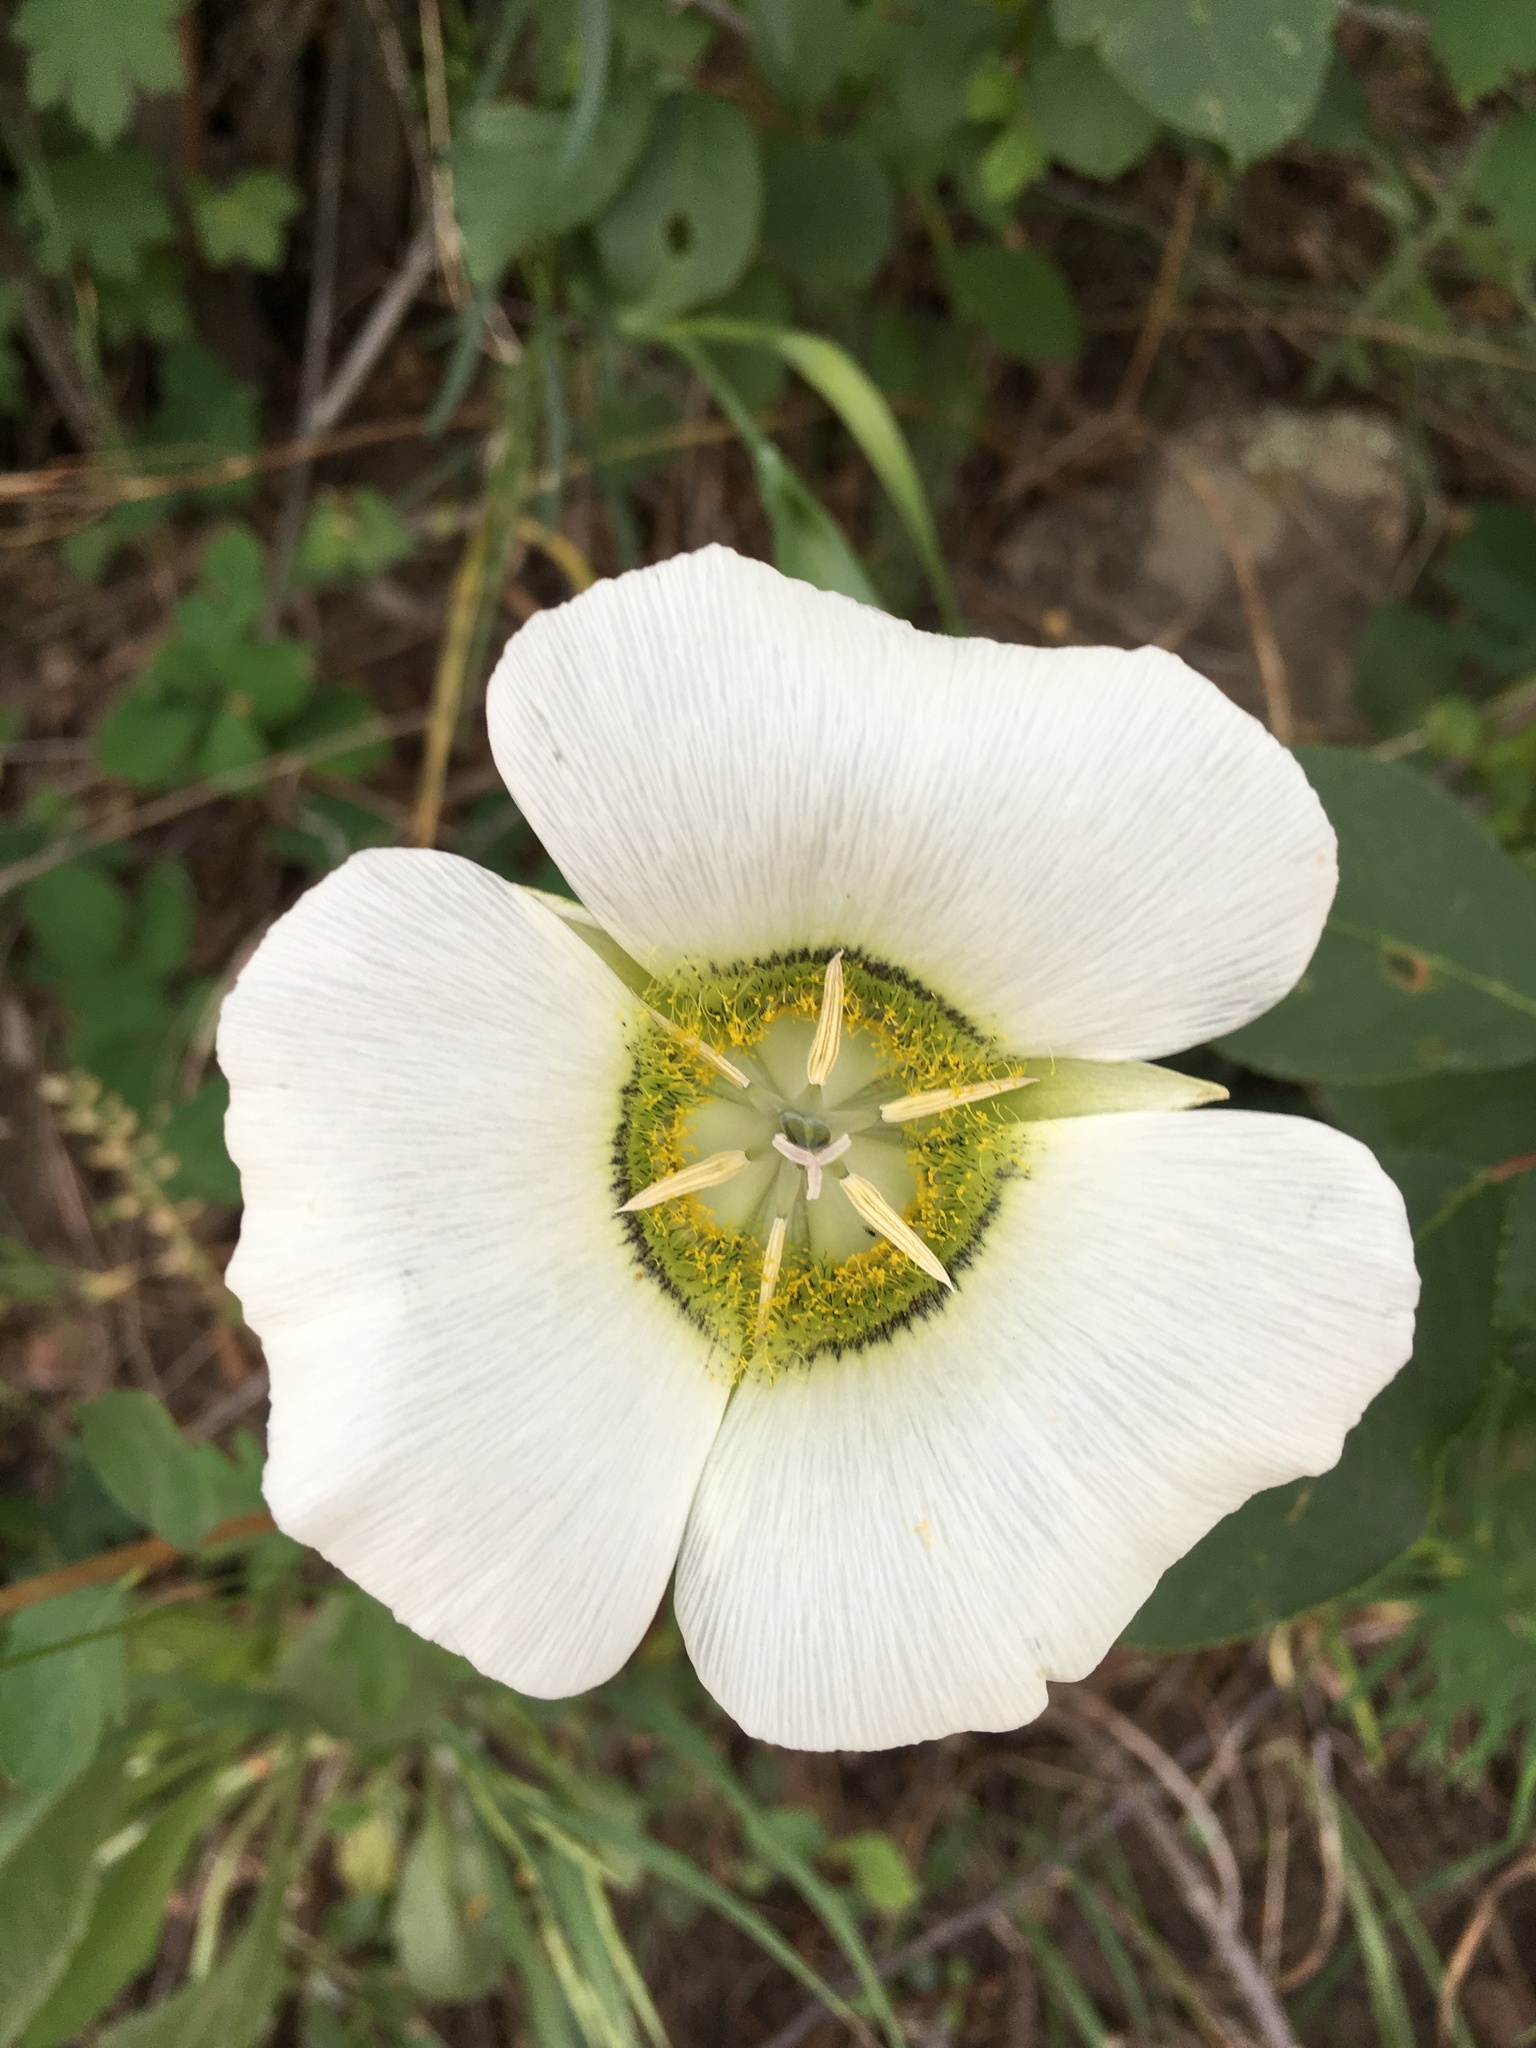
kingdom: Plantae
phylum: Tracheophyta
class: Liliopsida
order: Liliales
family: Liliaceae
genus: Calochortus
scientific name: Calochortus gunnisonii
